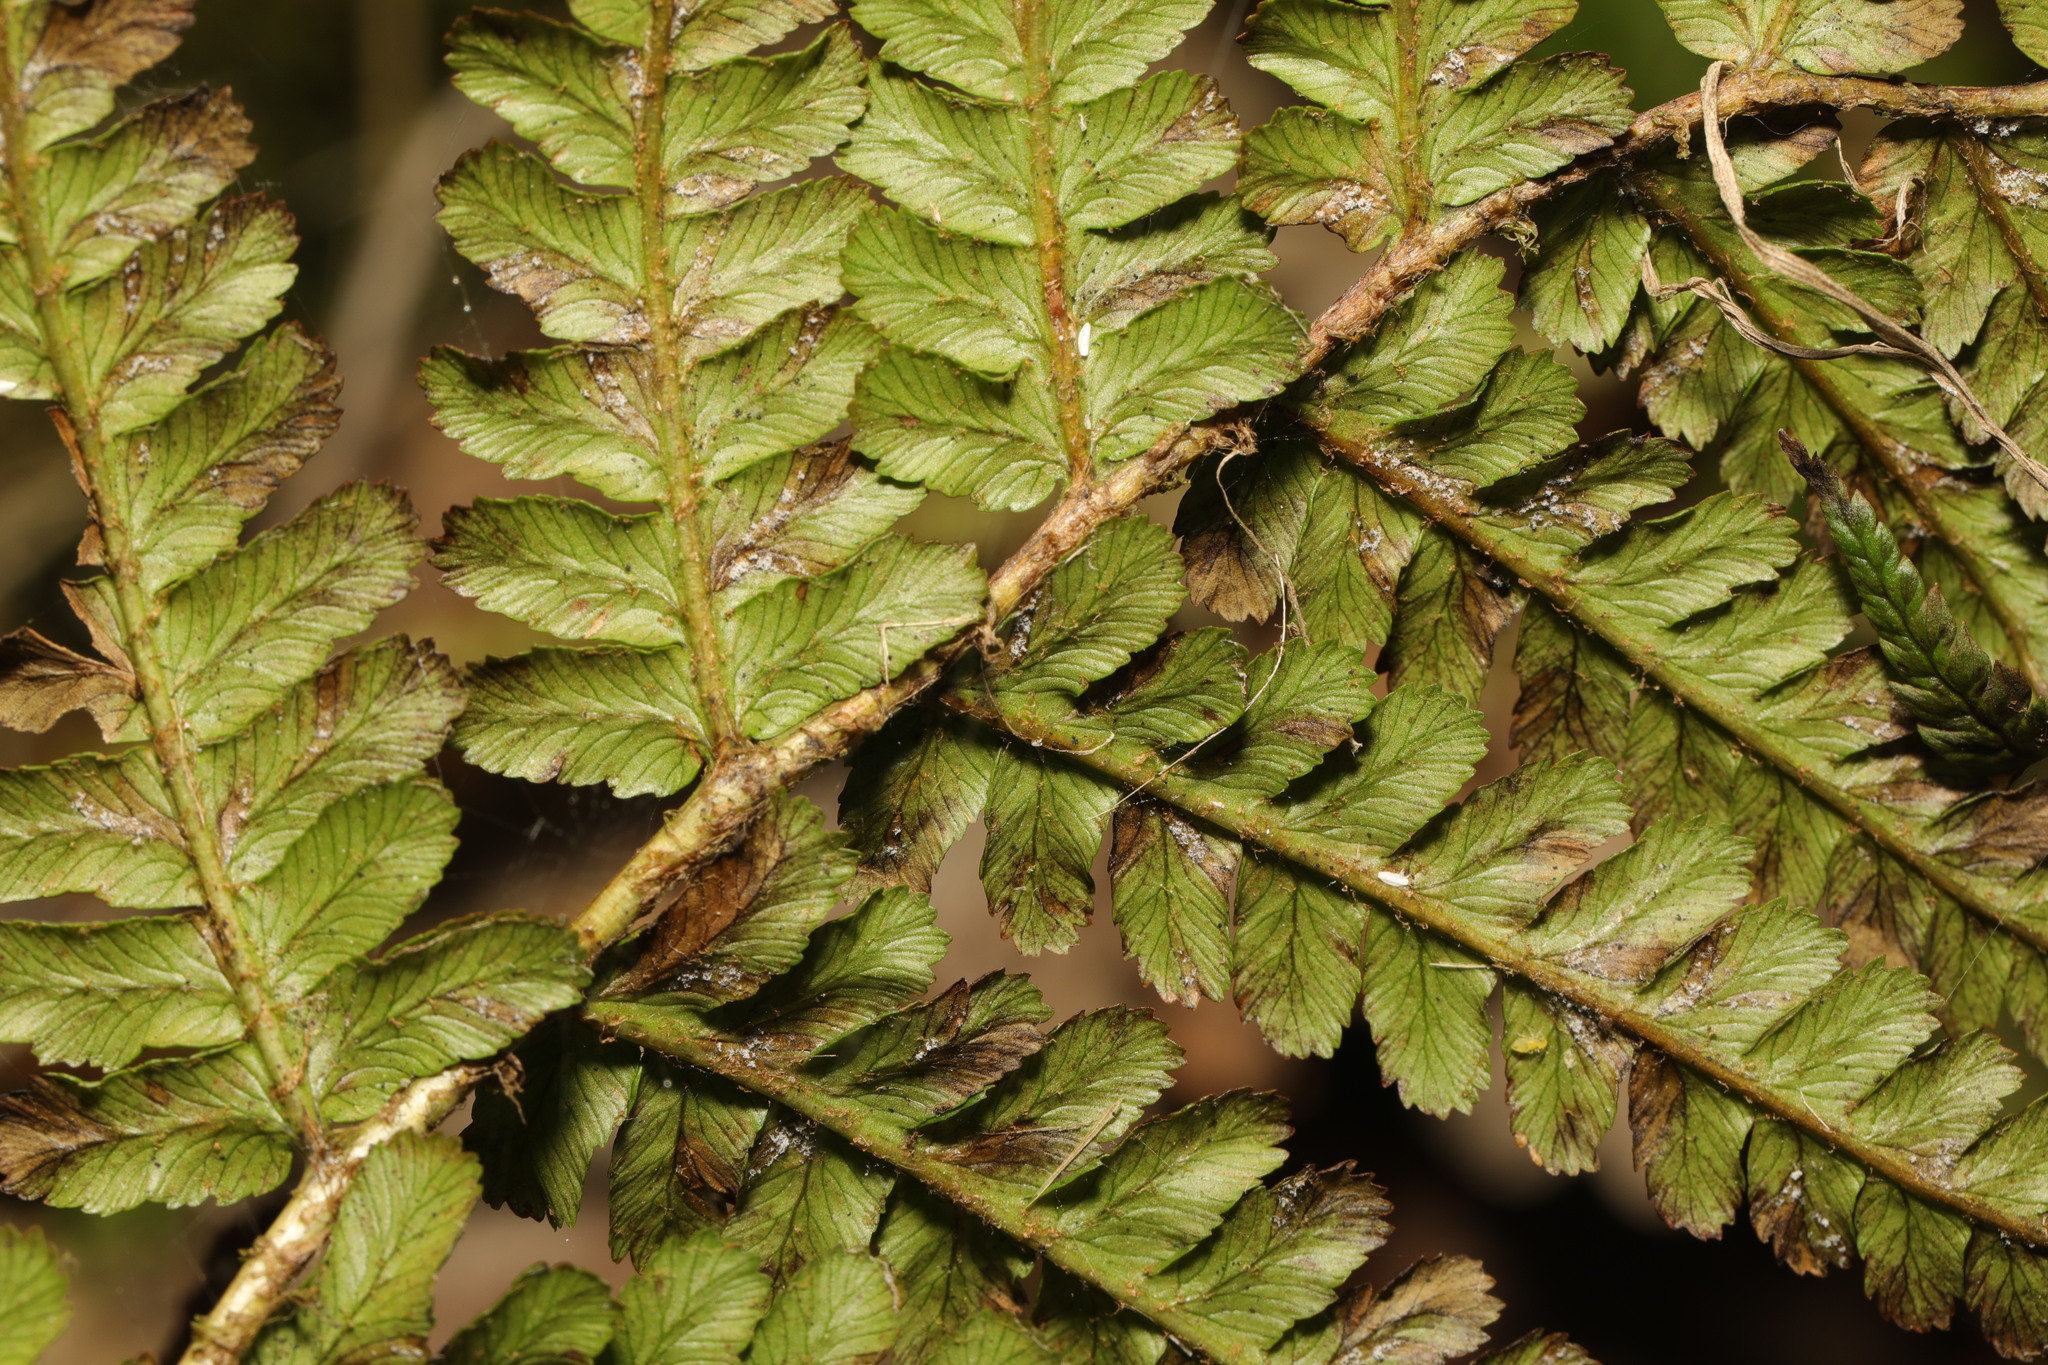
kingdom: Plantae
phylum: Tracheophyta
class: Polypodiopsida
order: Polypodiales
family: Dryopteridaceae
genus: Dryopteris
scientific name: Dryopteris filix-mas
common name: Male fern
